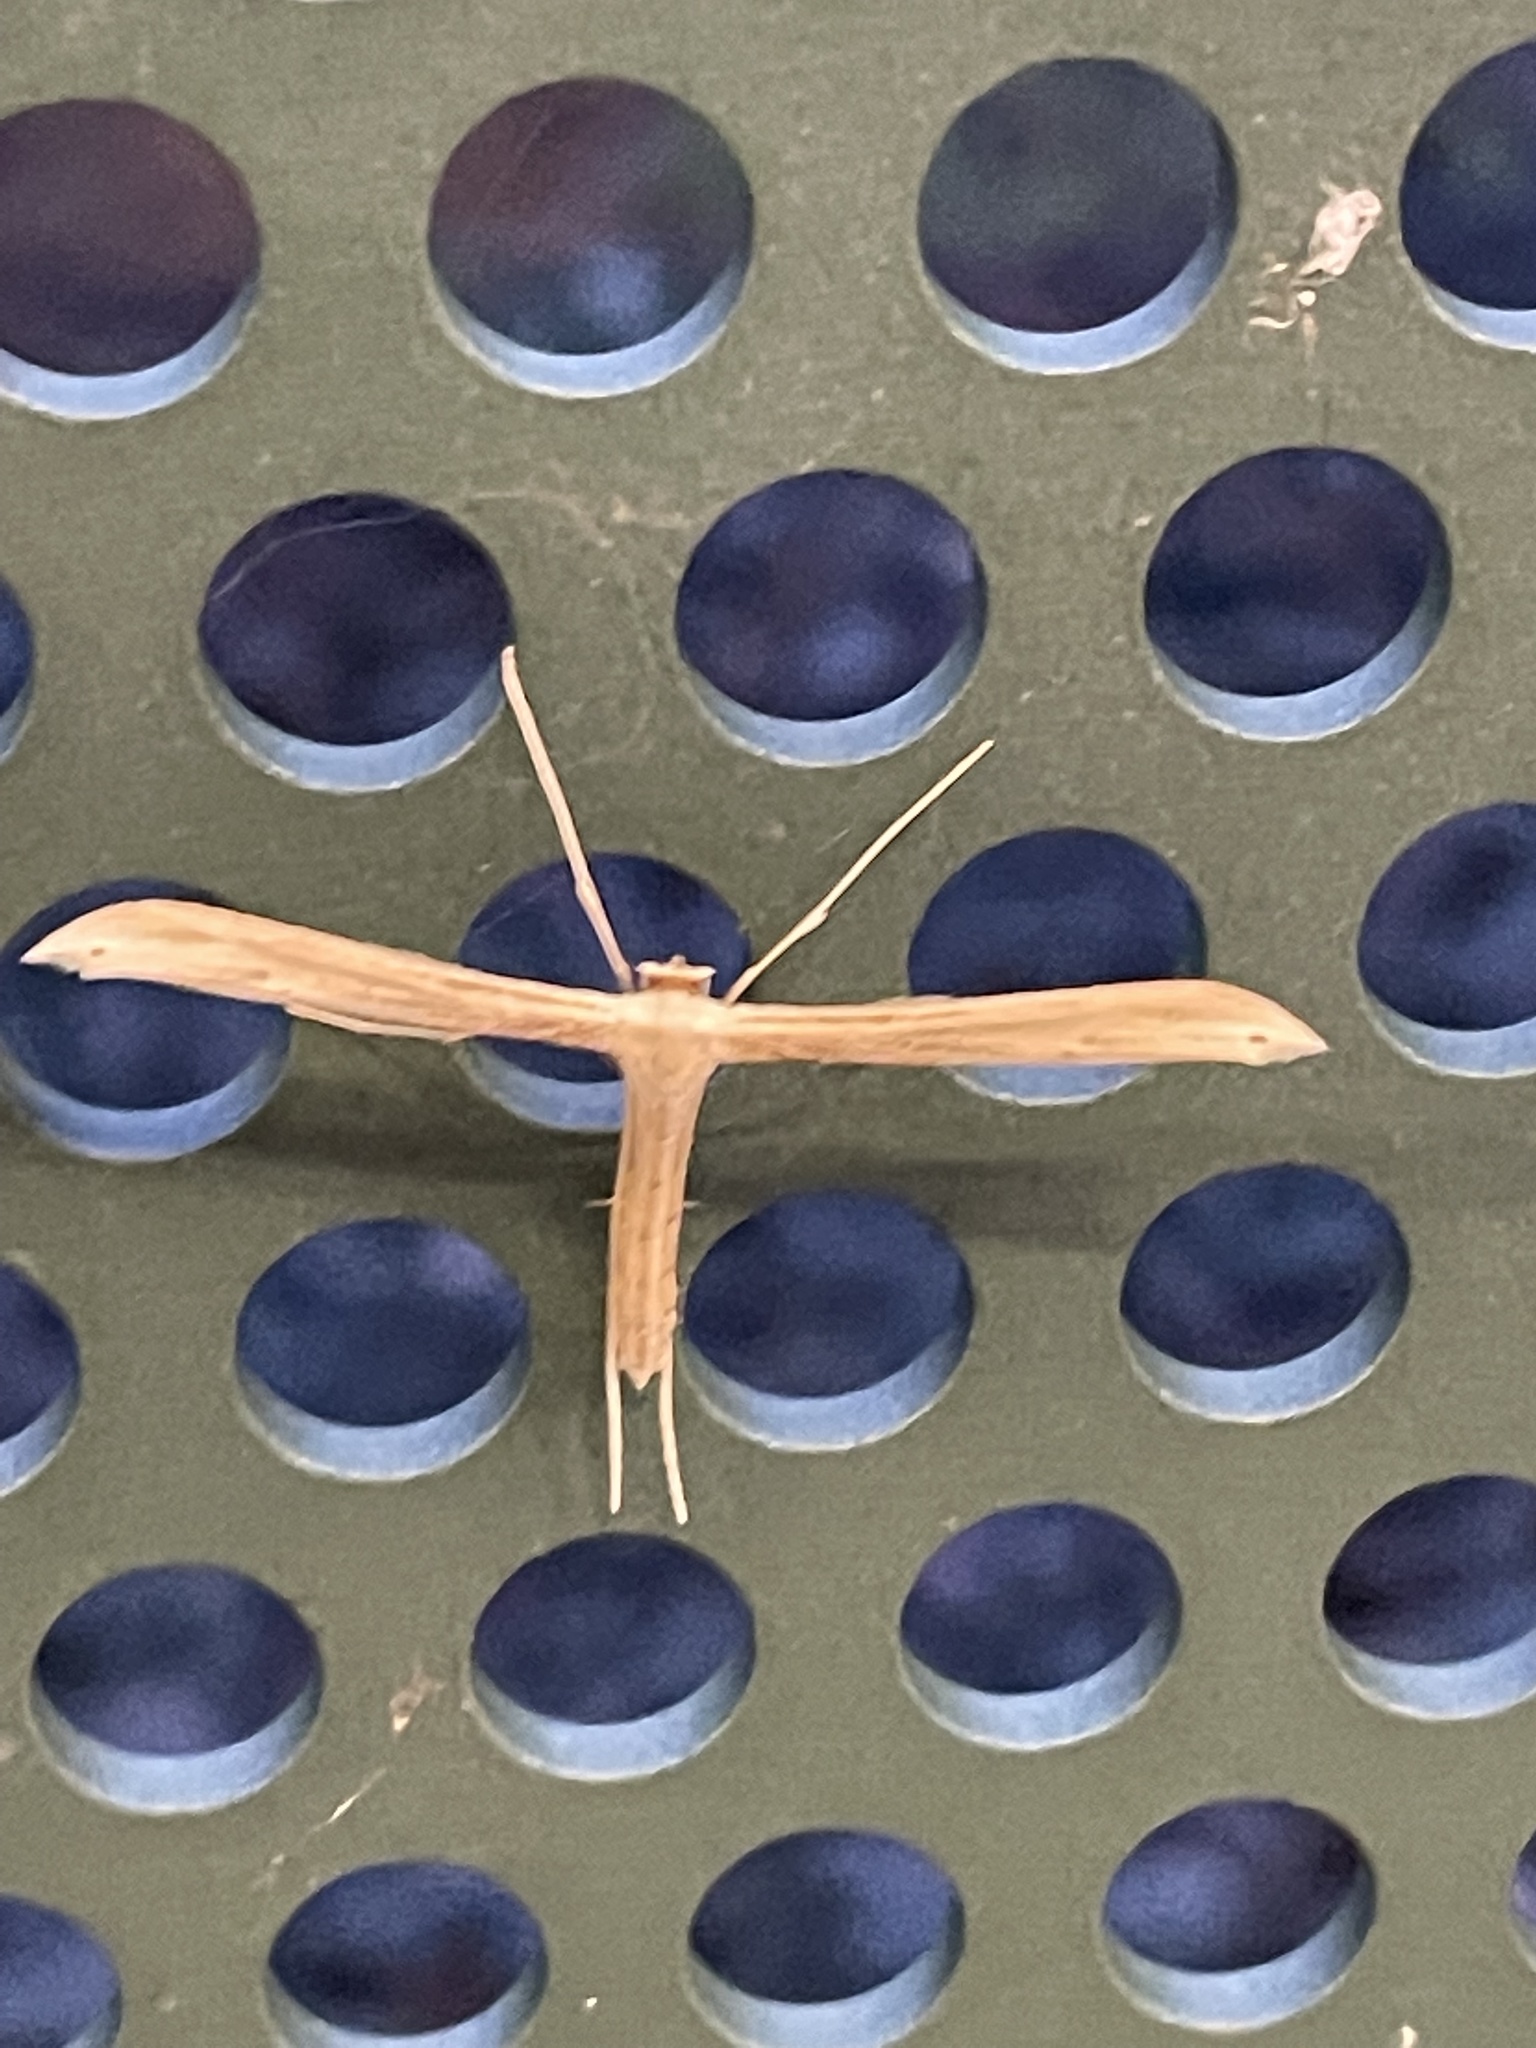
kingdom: Animalia
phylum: Arthropoda
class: Insecta
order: Lepidoptera
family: Pterophoridae
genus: Hellinsia
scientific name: Hellinsia balanotes
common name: Baccharis borer
